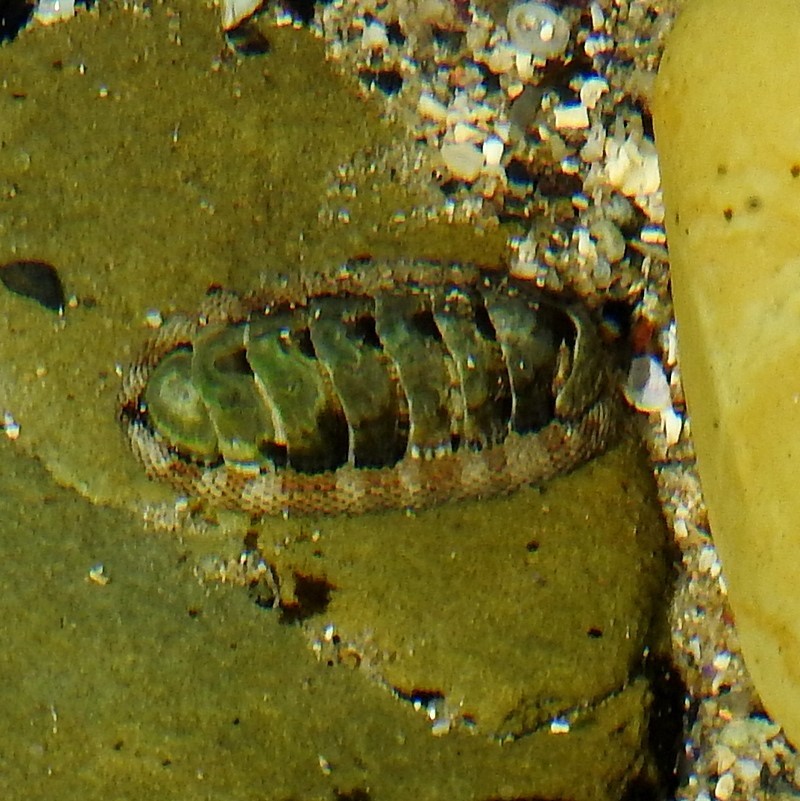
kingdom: Animalia
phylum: Mollusca
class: Polyplacophora
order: Chitonida
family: Chitonidae
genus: Sypharochiton
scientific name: Sypharochiton pelliserpentis
